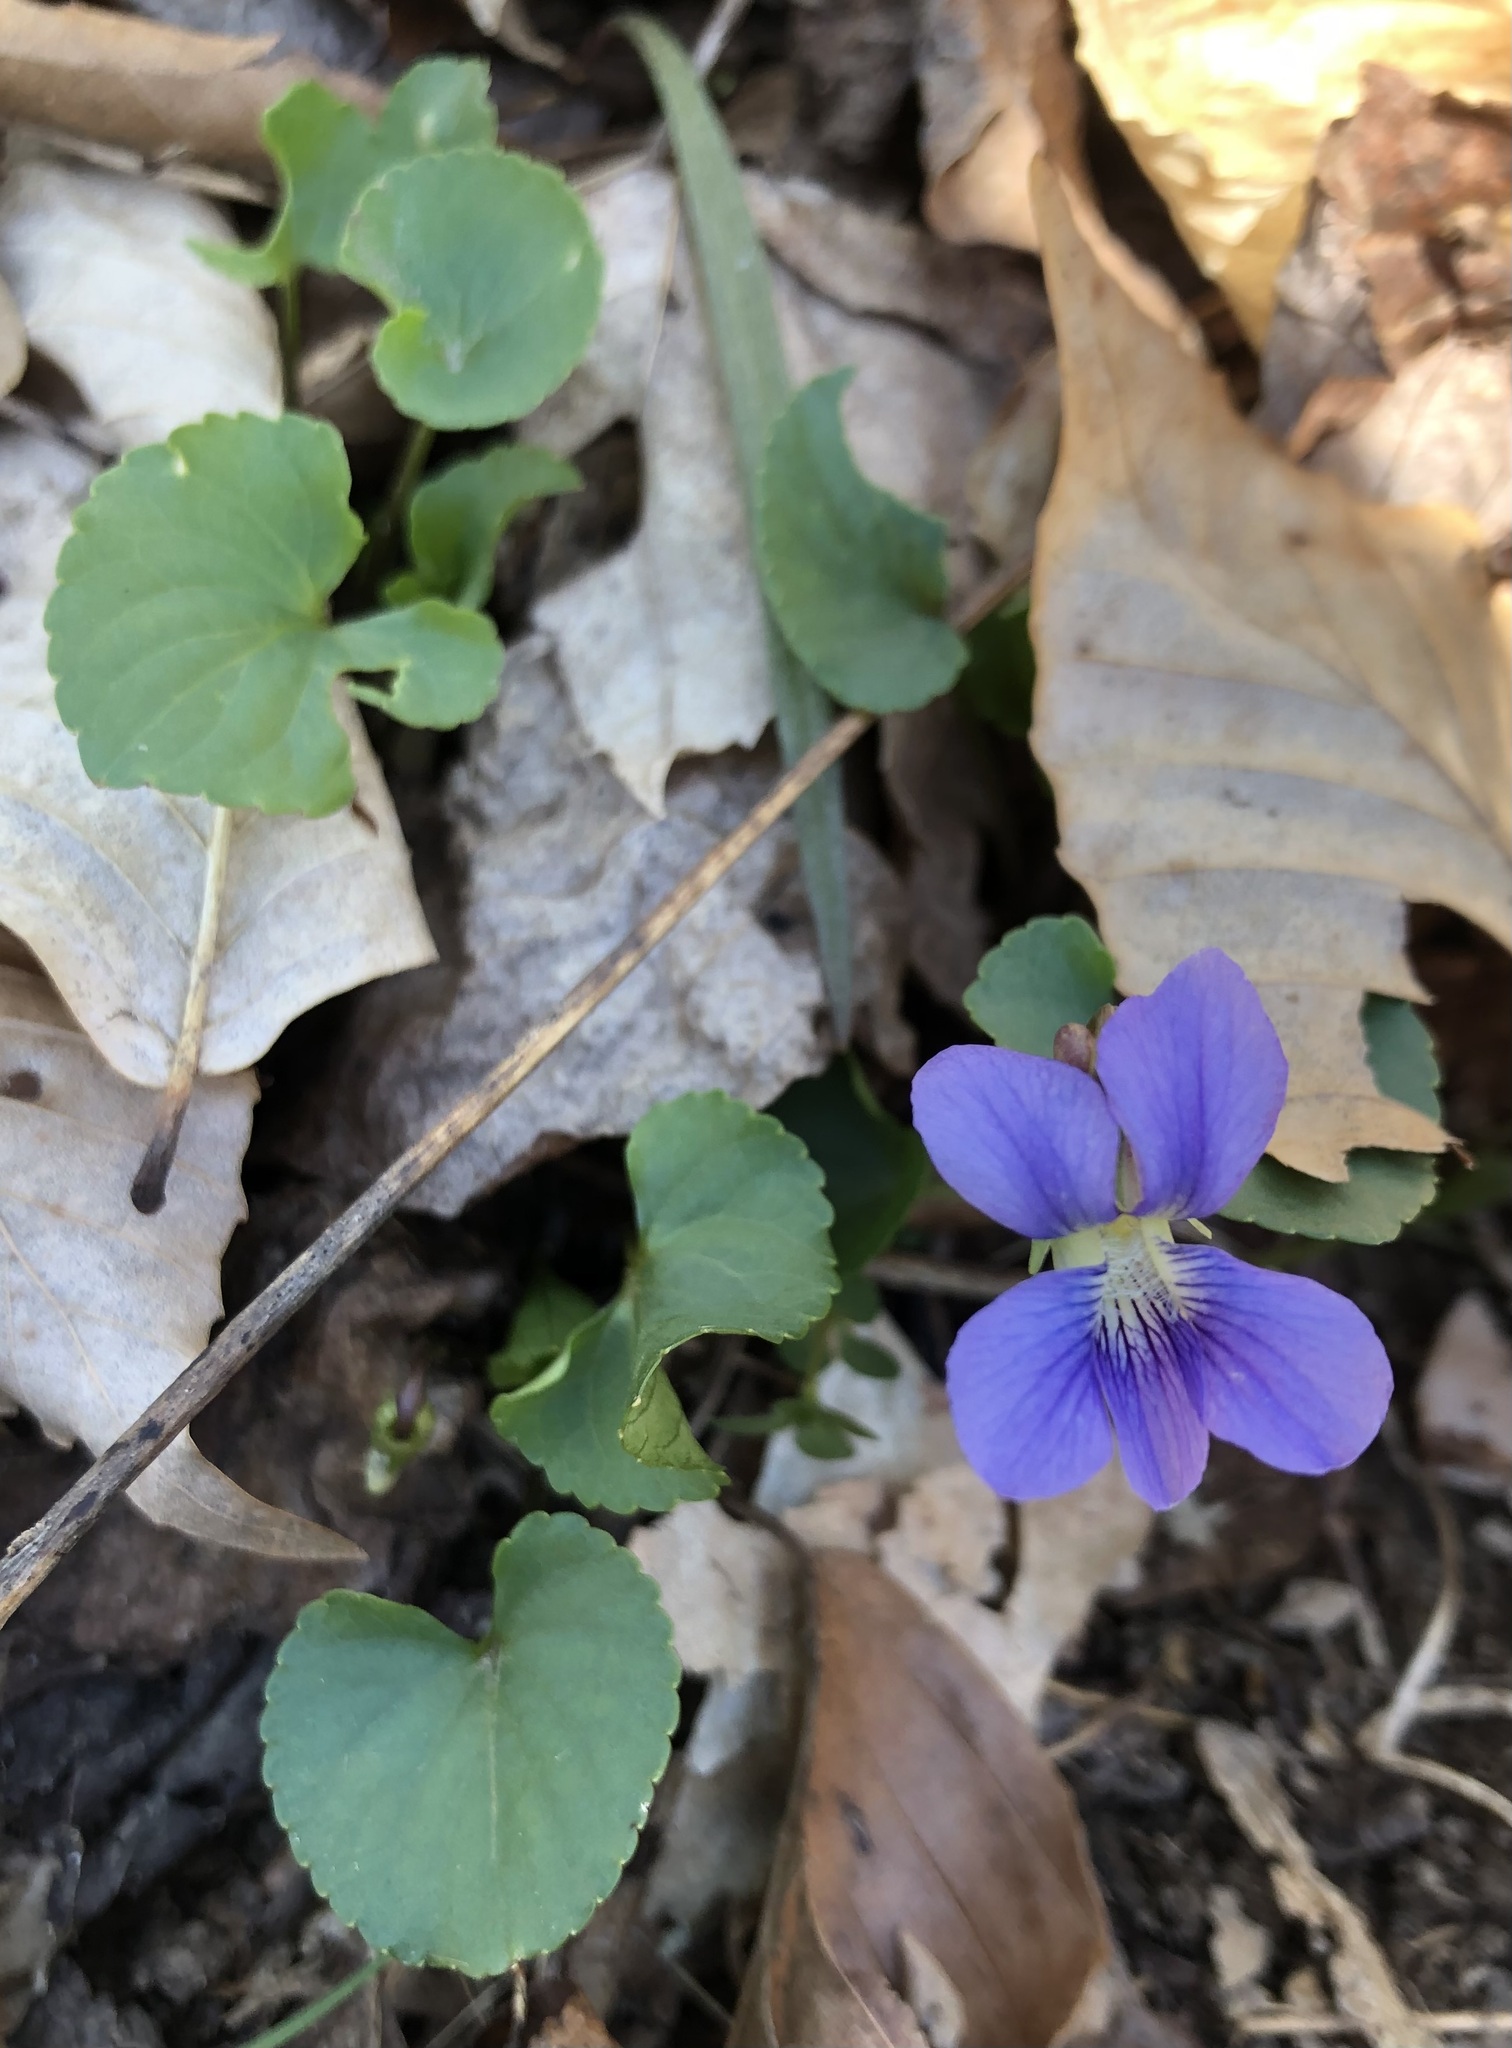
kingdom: Plantae
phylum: Tracheophyta
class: Magnoliopsida
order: Malpighiales
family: Violaceae
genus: Viola
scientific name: Viola sororia
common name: Dooryard violet
